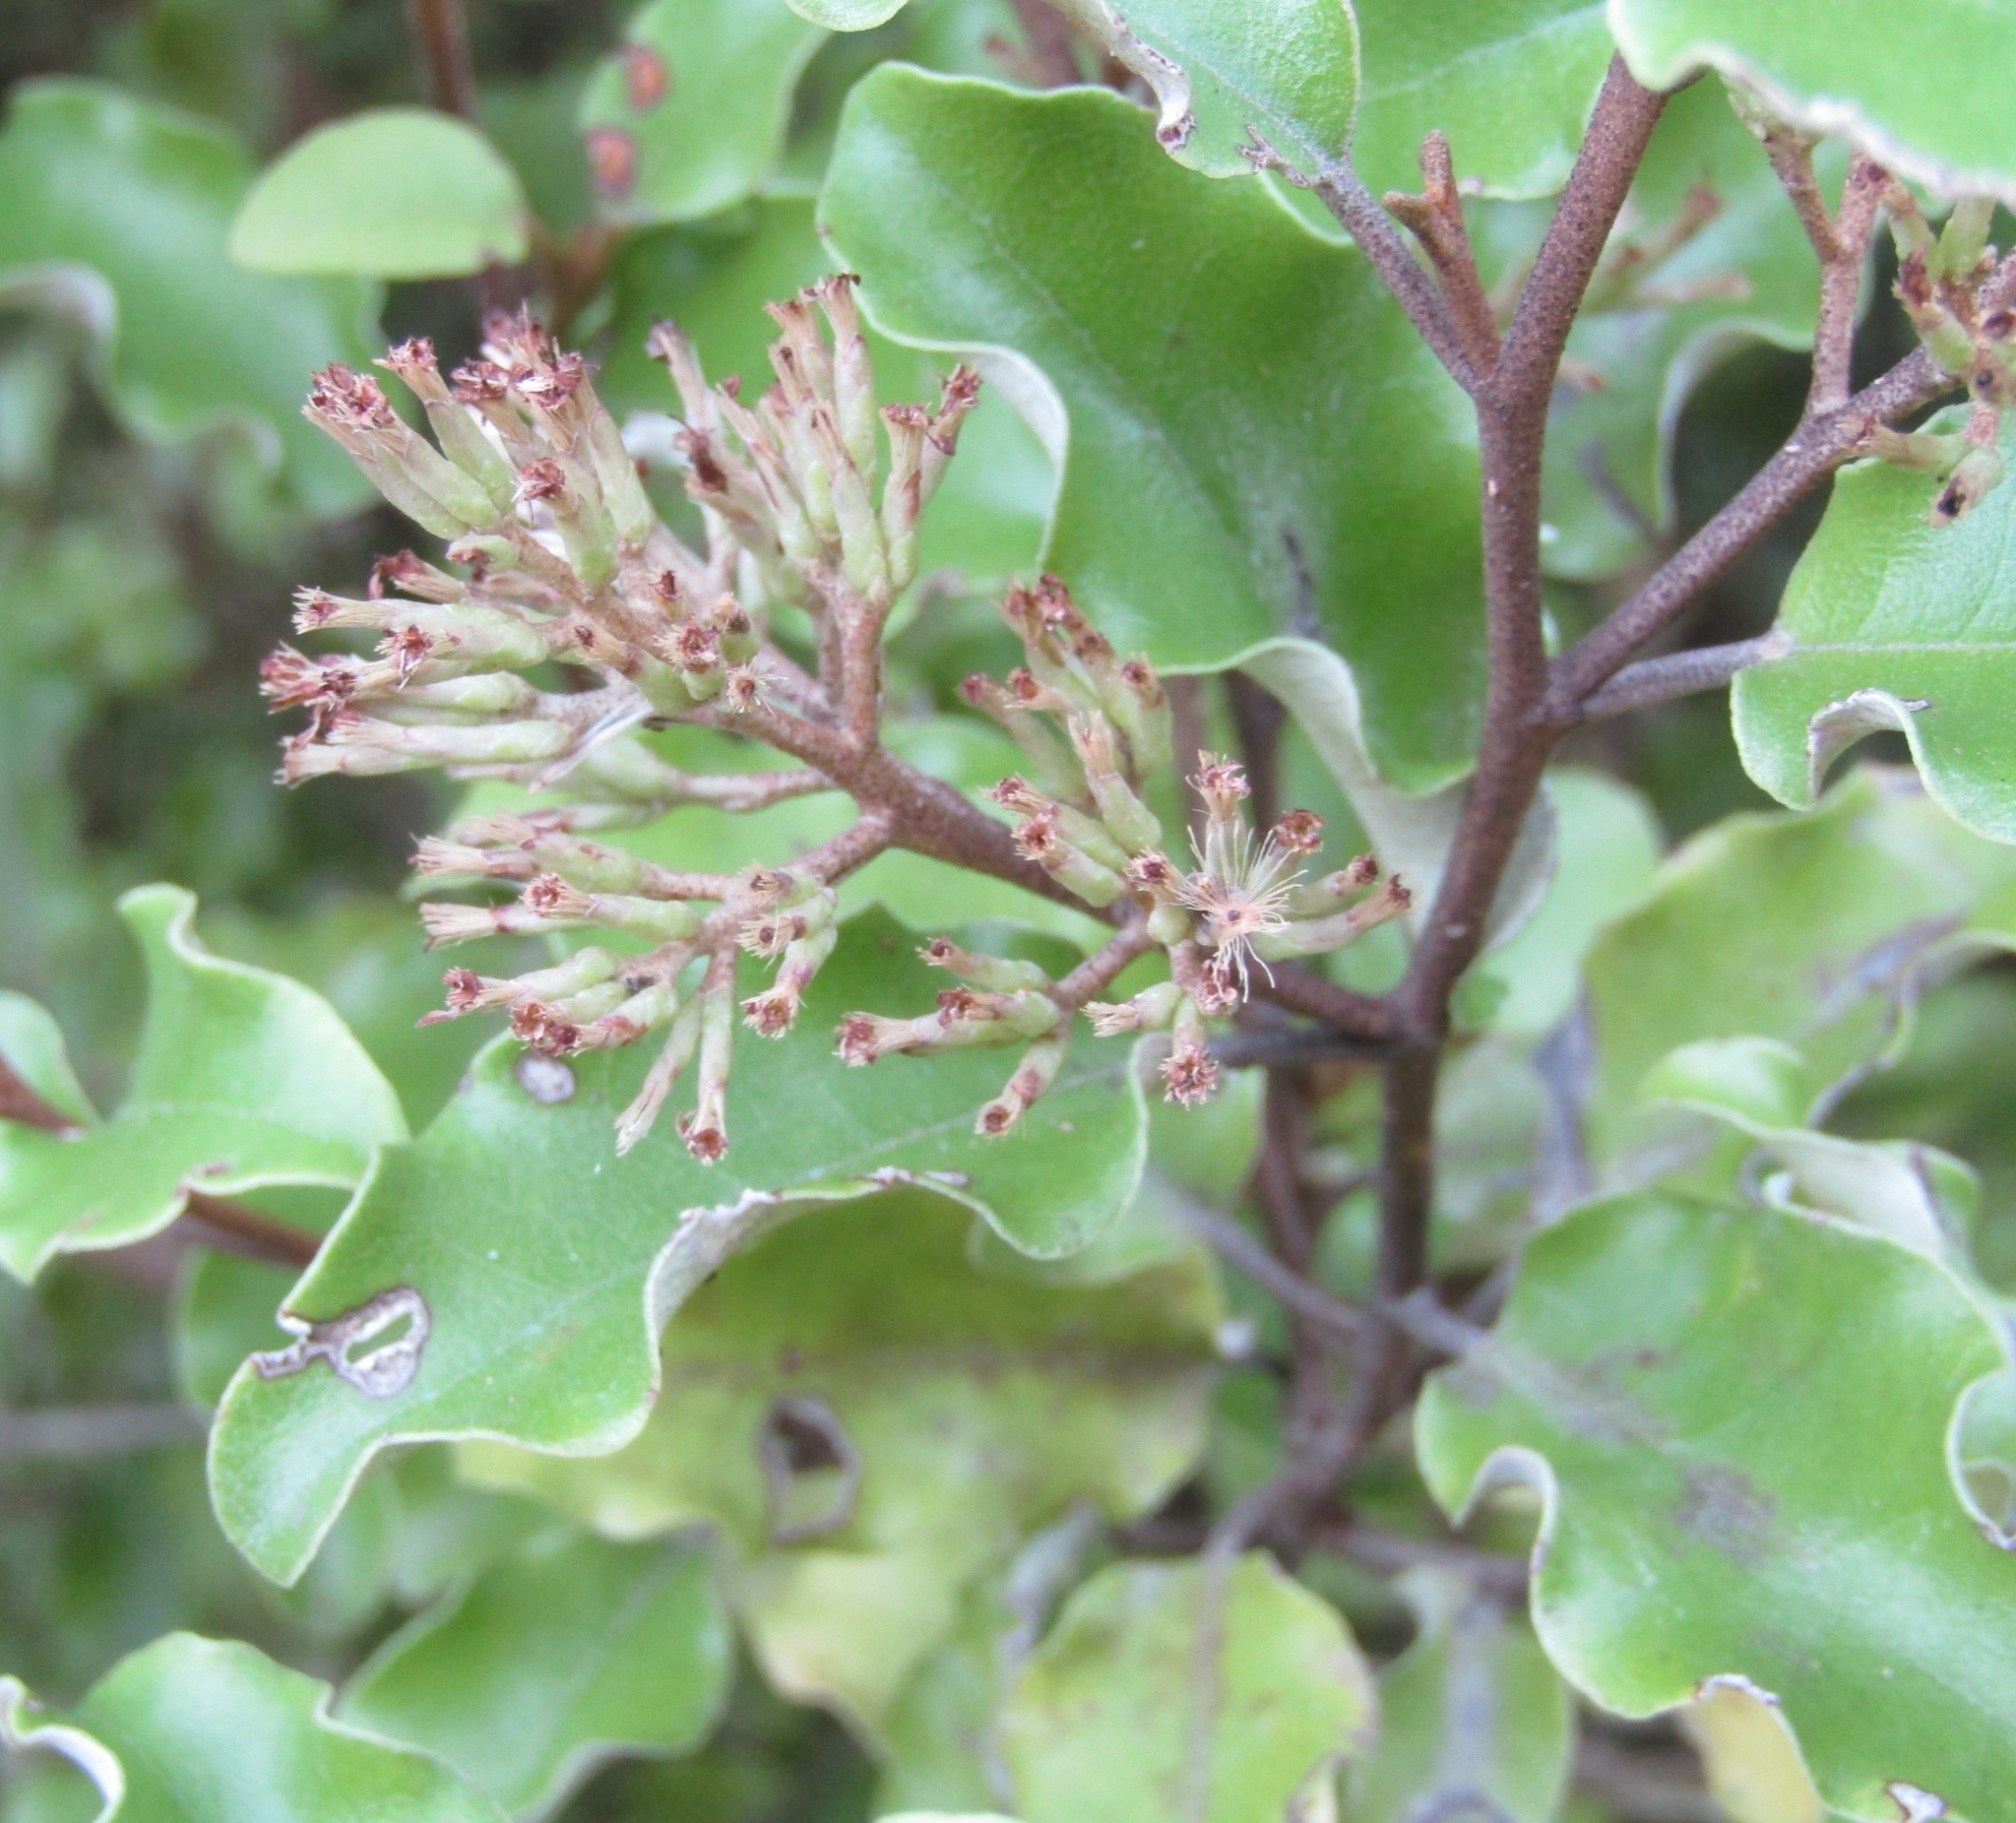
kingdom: Plantae
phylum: Tracheophyta
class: Magnoliopsida
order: Asterales
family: Asteraceae
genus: Olearia
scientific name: Olearia paniculata
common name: Akiraho
